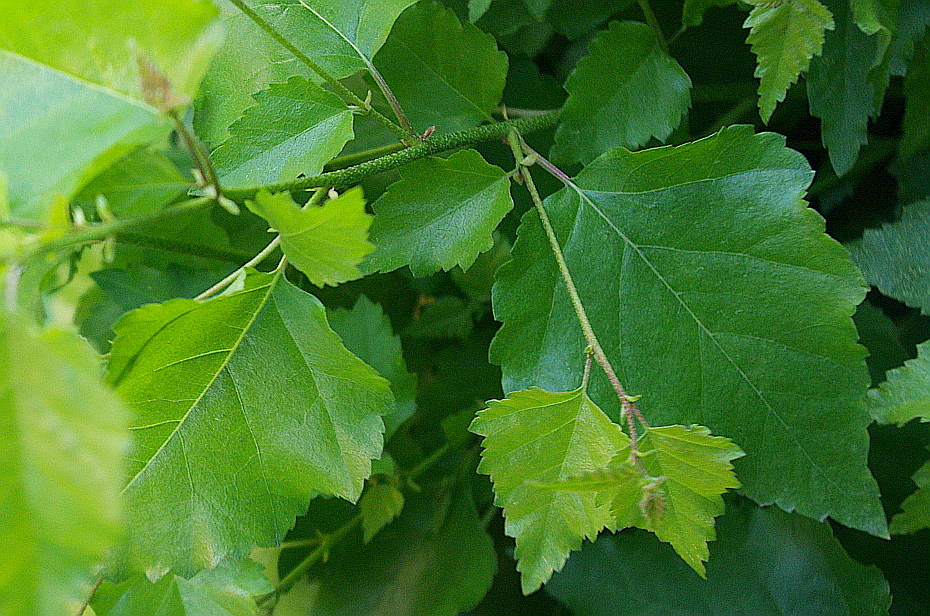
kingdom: Plantae
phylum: Tracheophyta
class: Magnoliopsida
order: Fagales
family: Betulaceae
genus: Betula
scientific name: Betula pendula
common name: Silver birch
